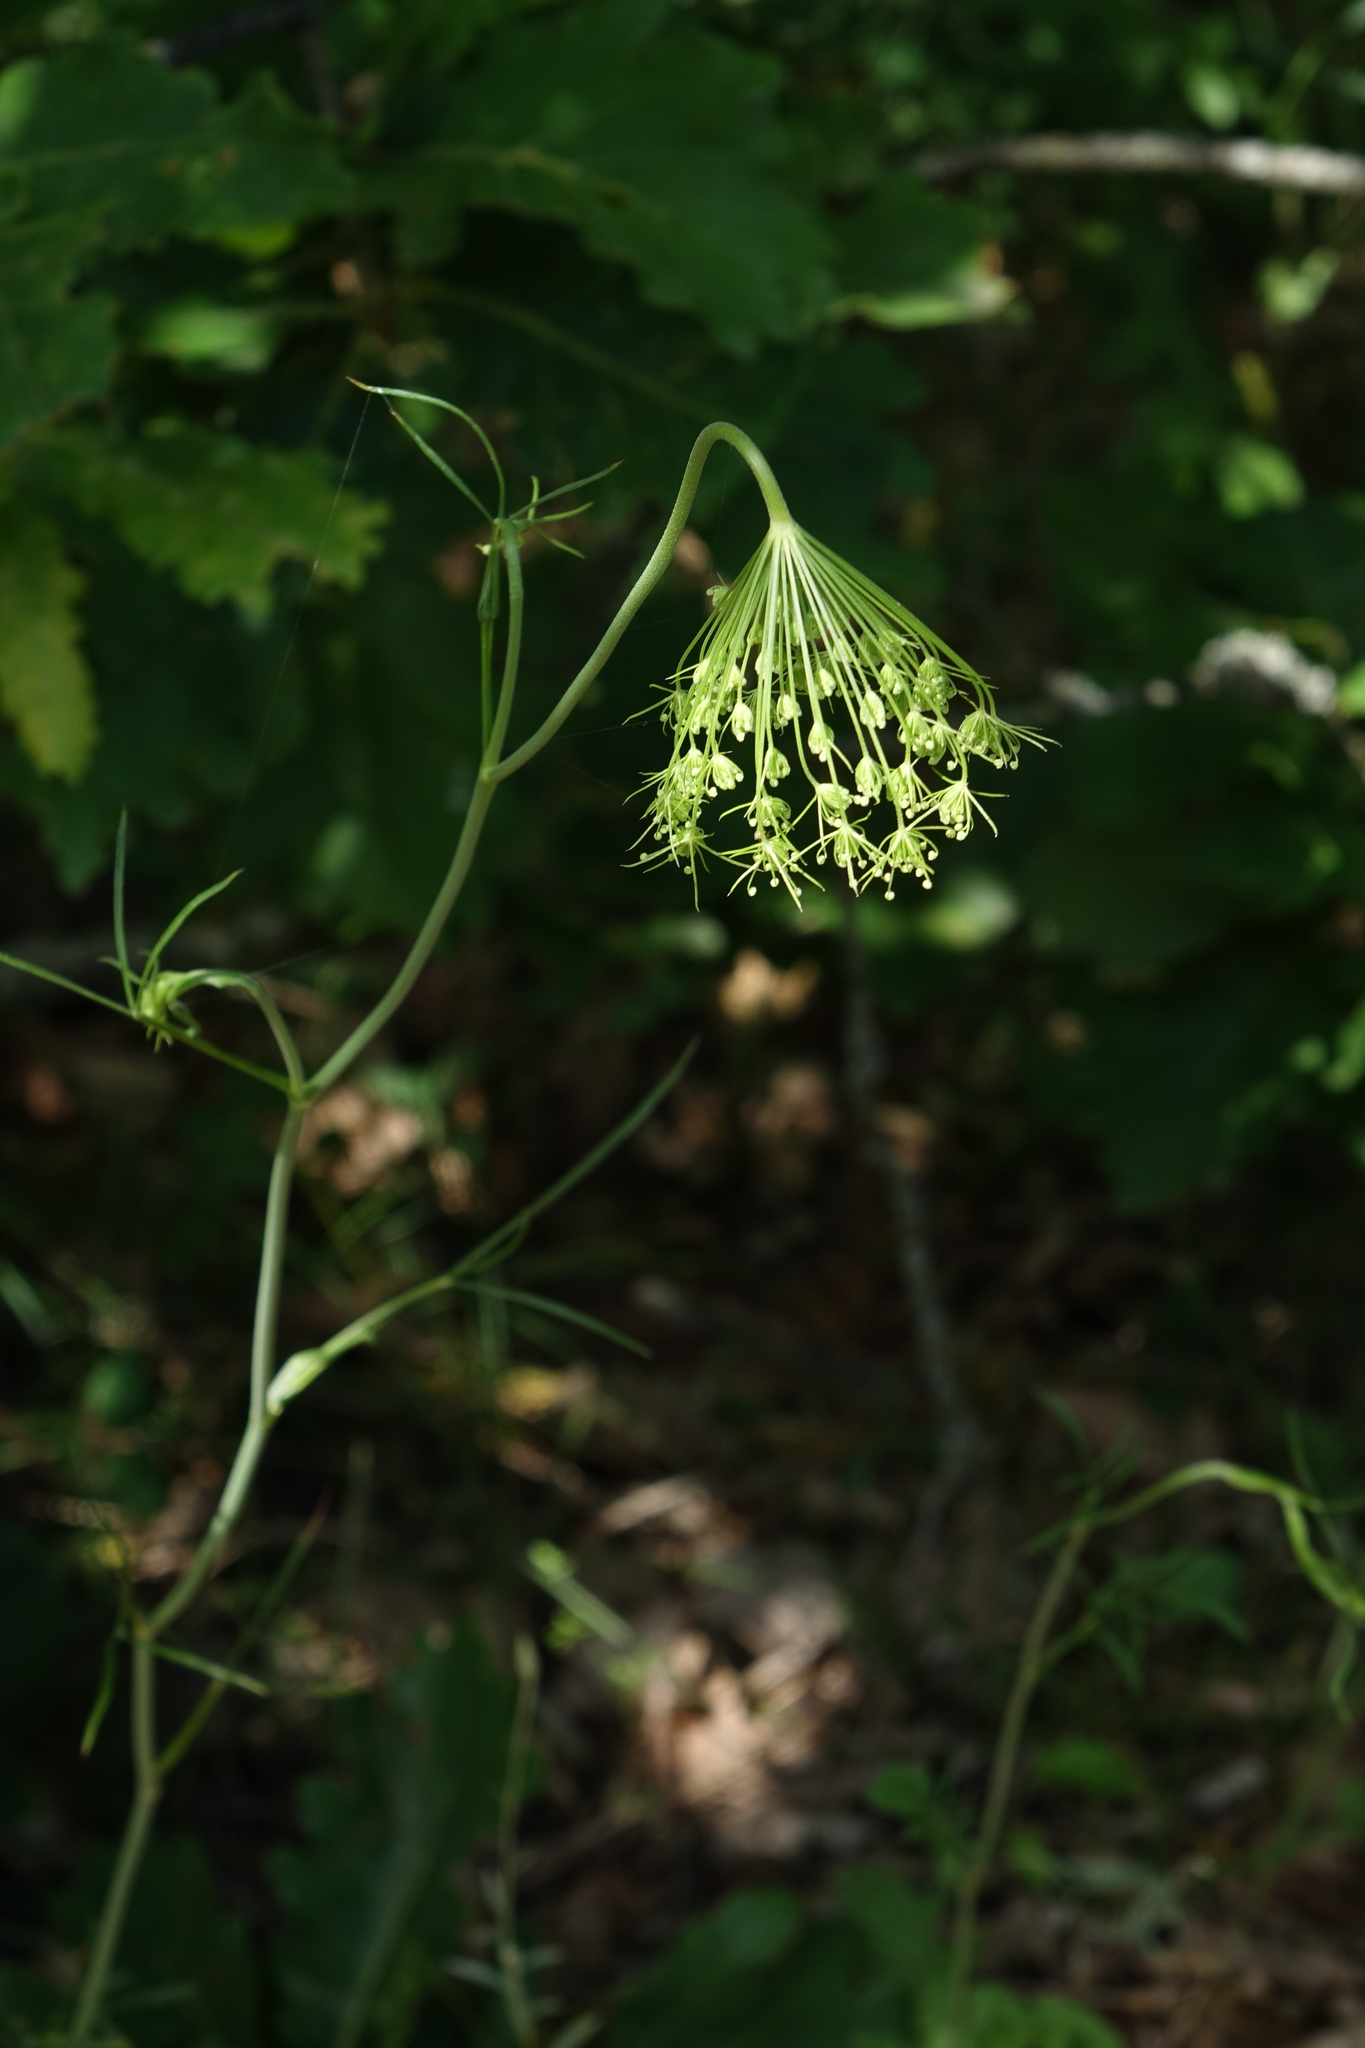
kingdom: Plantae
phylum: Tracheophyta
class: Magnoliopsida
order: Apiales
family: Apiaceae
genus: Pimpinella
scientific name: Pimpinella peregrina
